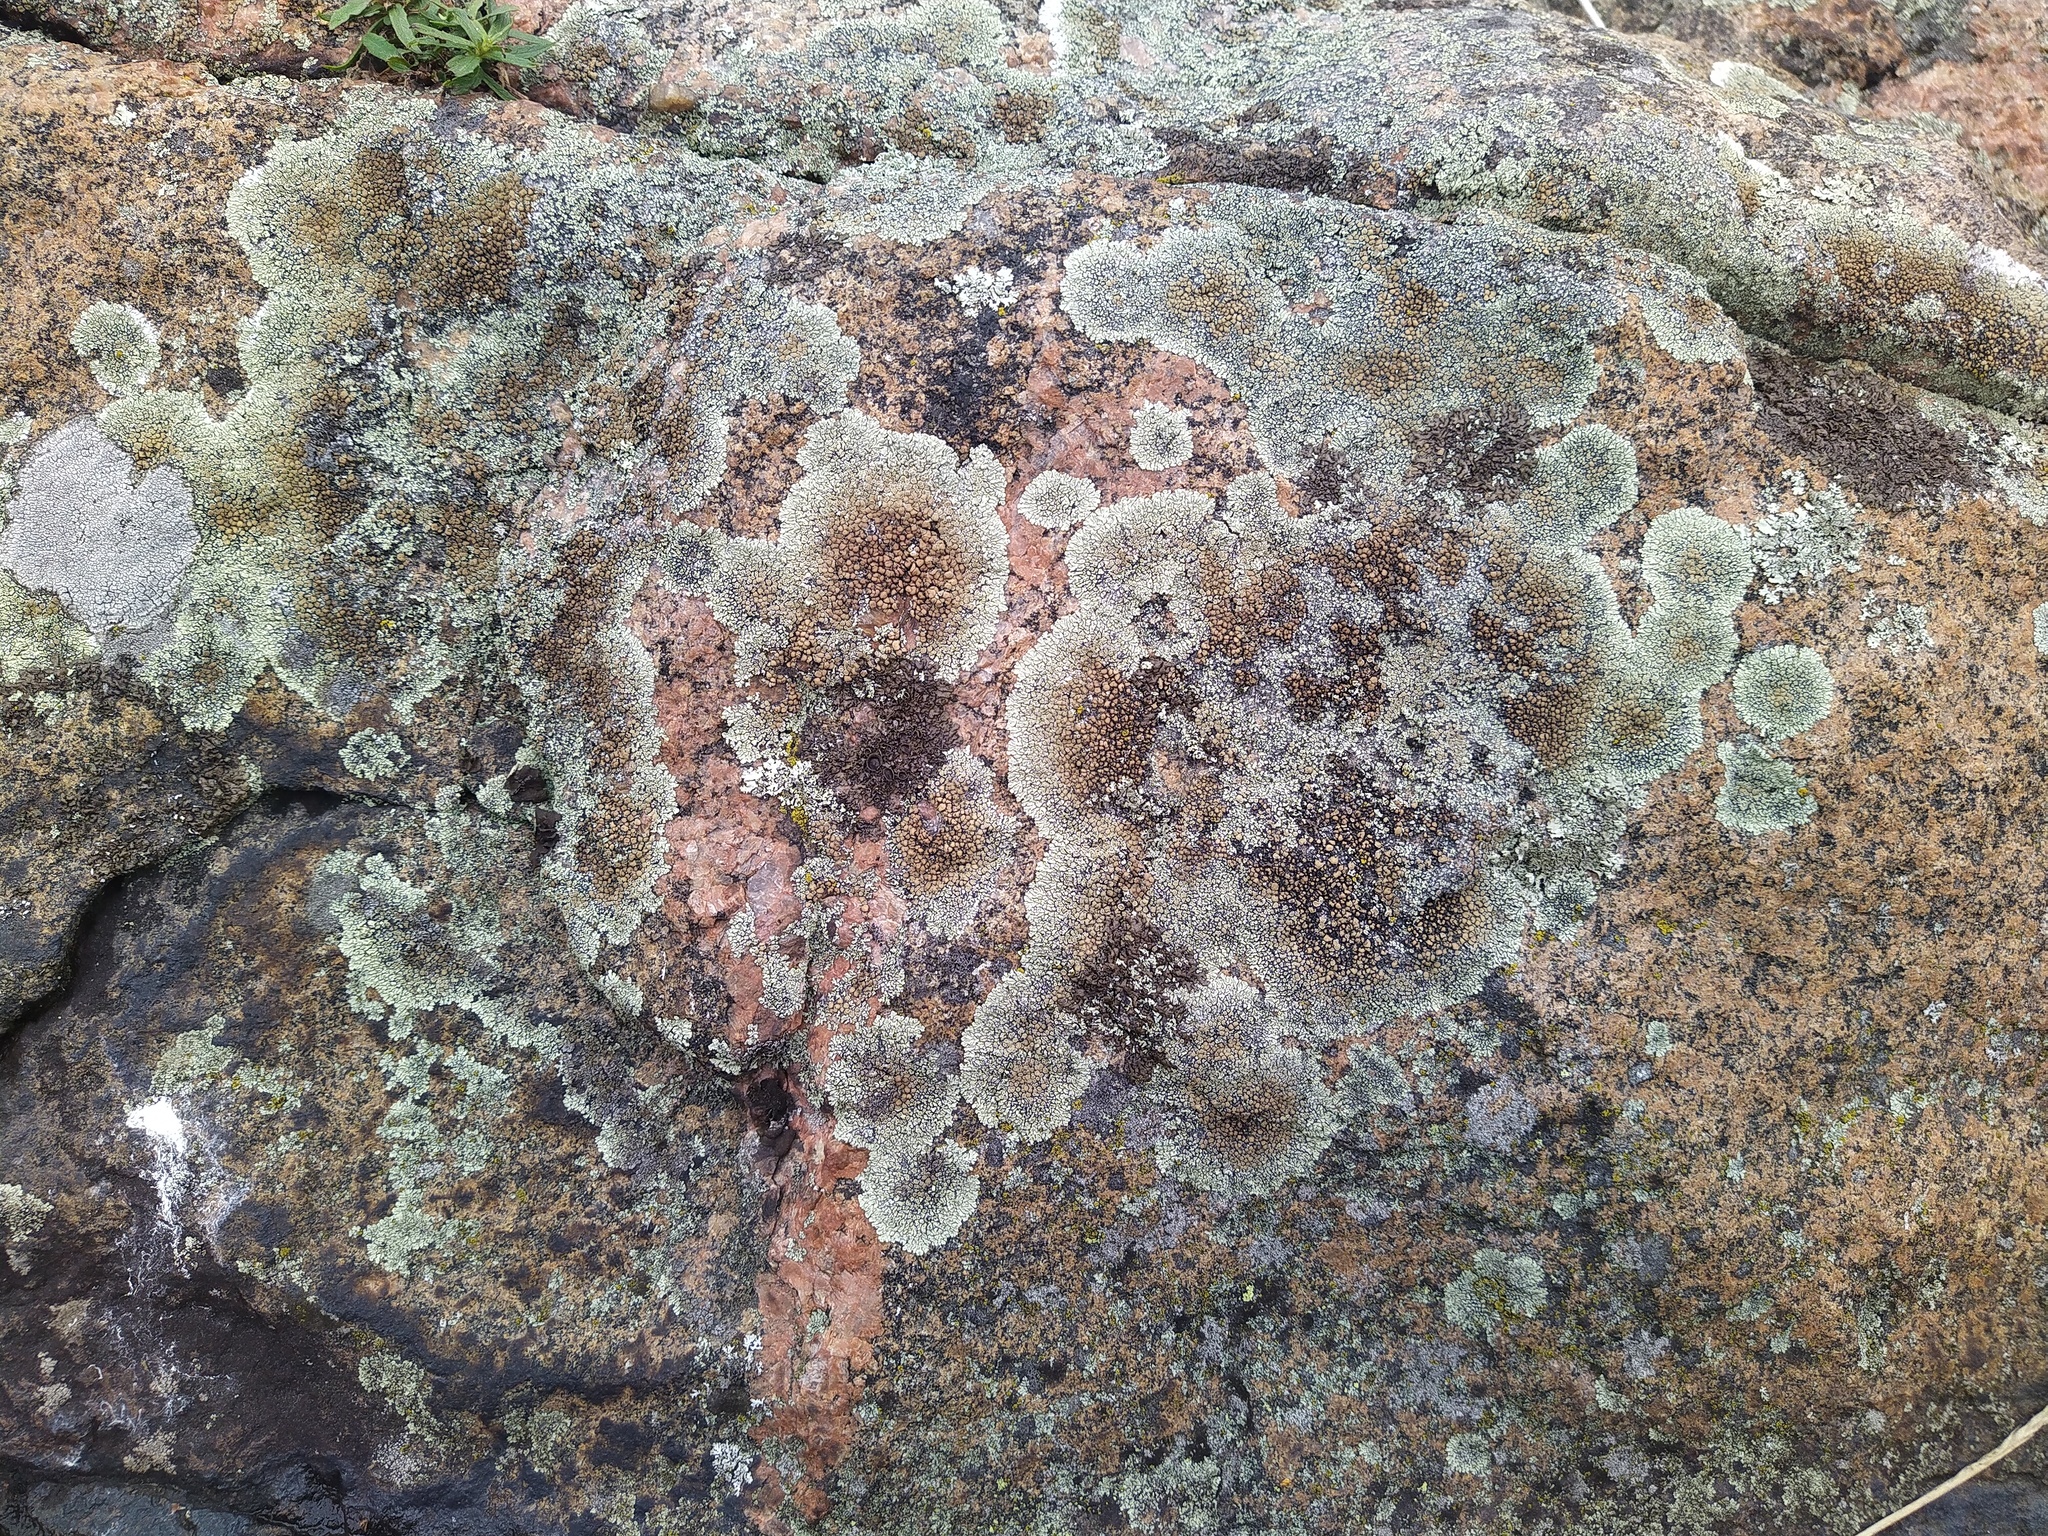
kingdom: Fungi
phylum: Ascomycota
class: Lecanoromycetes
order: Lecanorales
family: Lecanoraceae
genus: Protoparmeliopsis
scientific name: Protoparmeliopsis muralis
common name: Stonewall rim lichen
